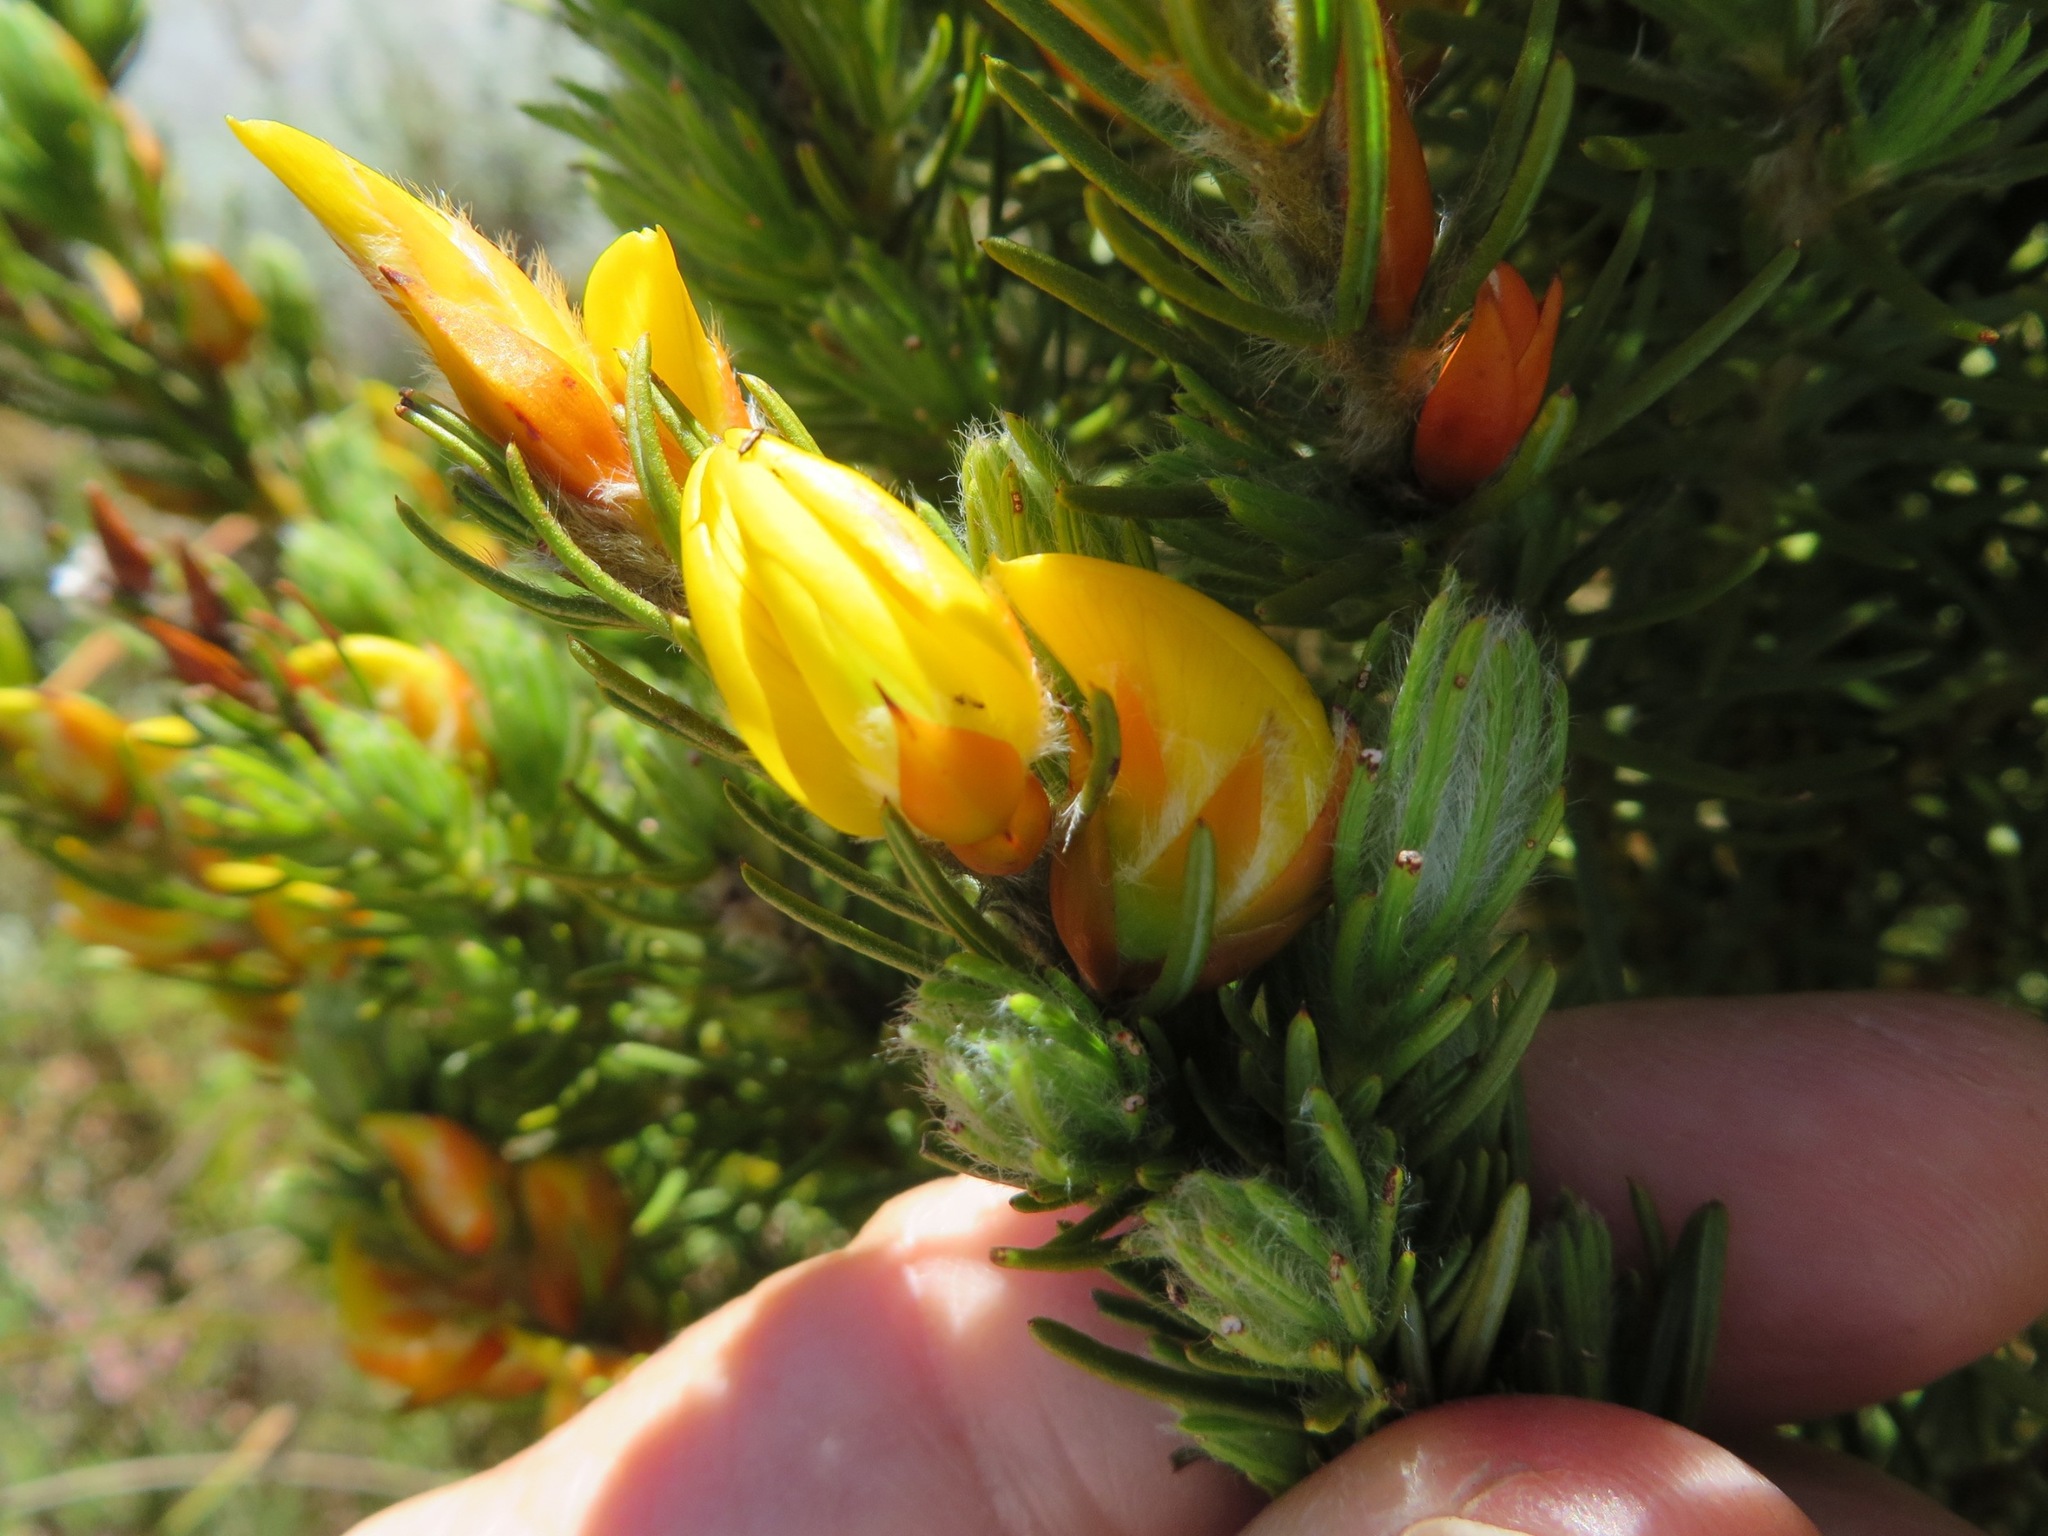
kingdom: Plantae
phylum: Tracheophyta
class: Magnoliopsida
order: Fabales
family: Fabaceae
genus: Cyclopia
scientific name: Cyclopia meyeriana
